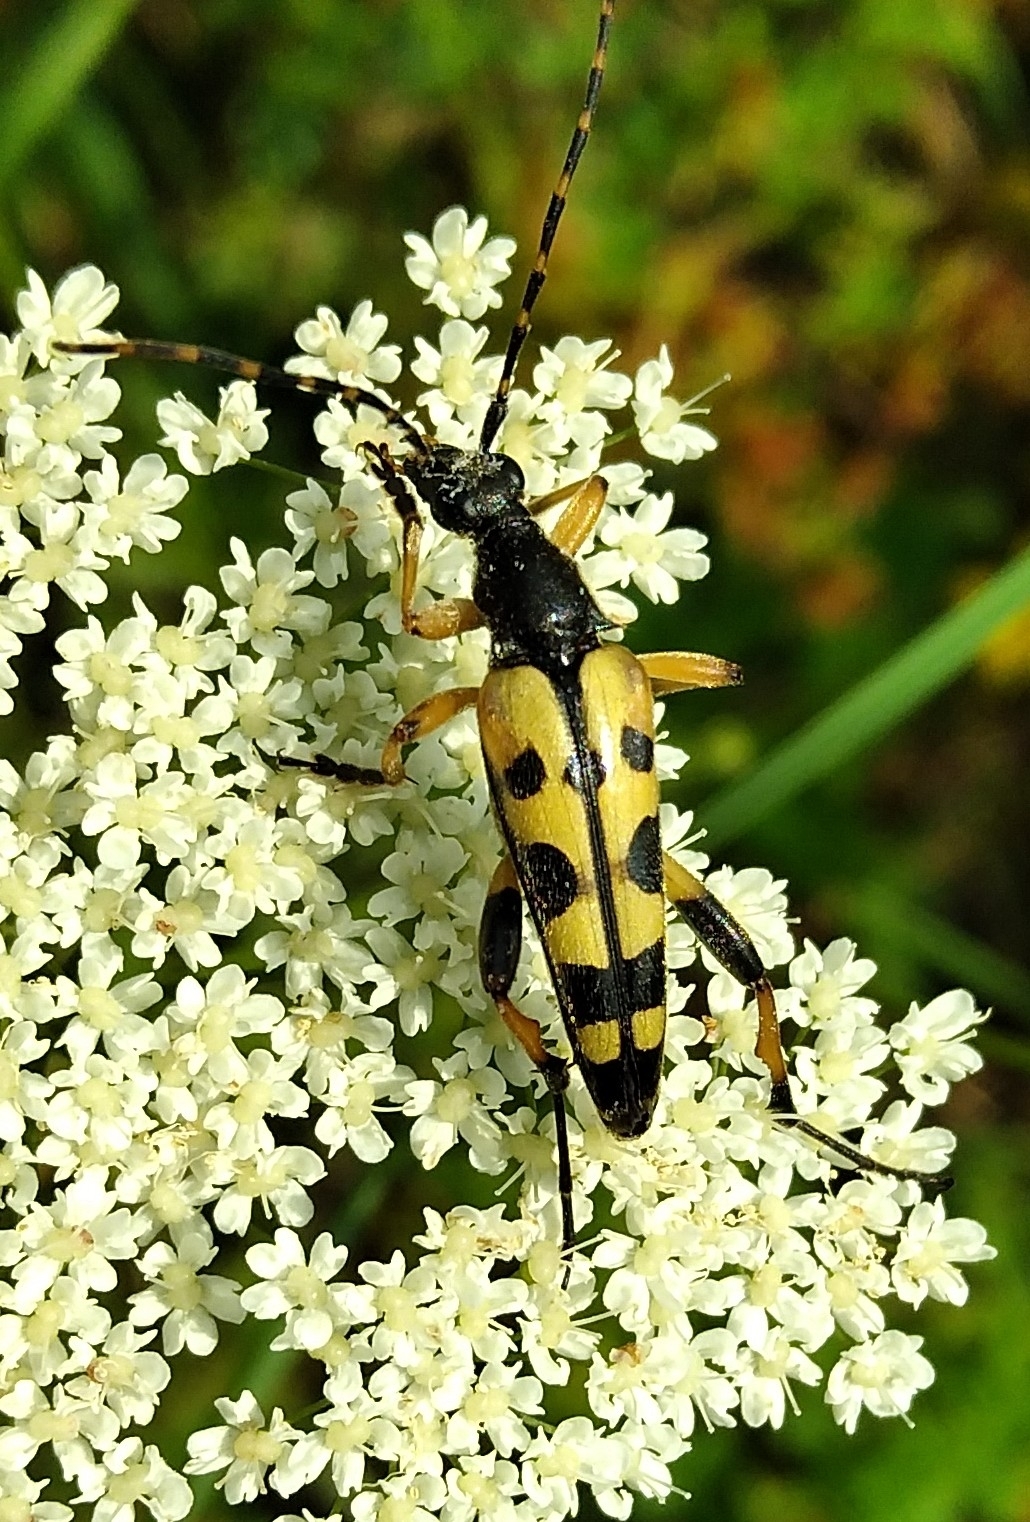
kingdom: Animalia
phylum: Arthropoda
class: Insecta
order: Coleoptera
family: Cerambycidae
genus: Rutpela
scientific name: Rutpela maculata
